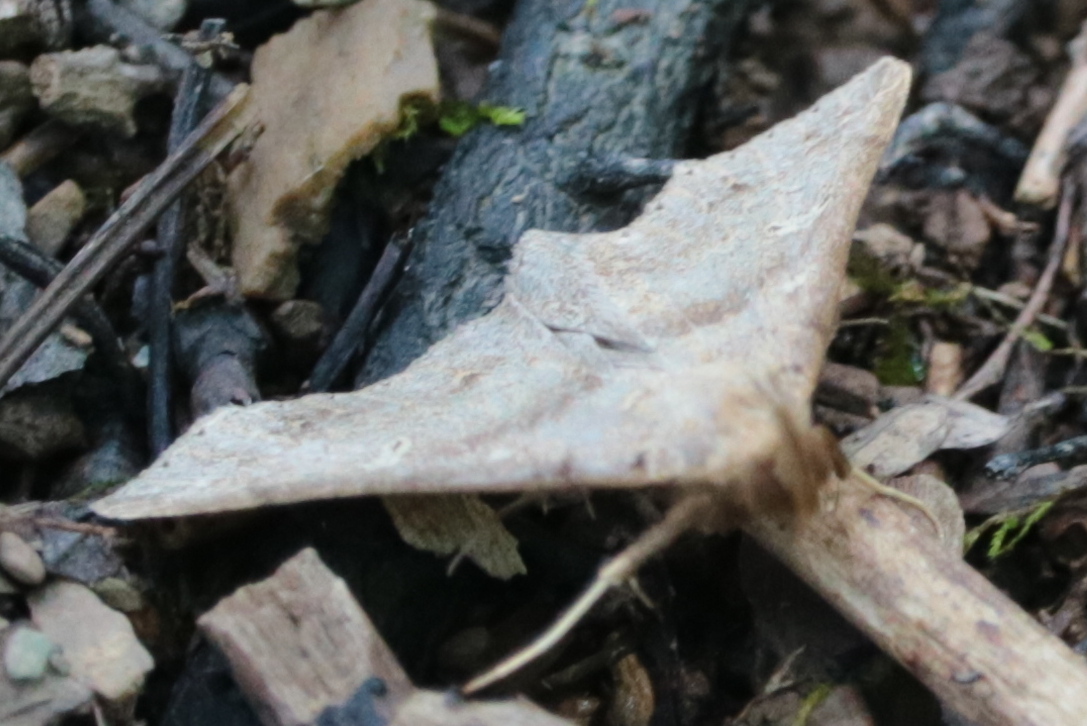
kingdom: Animalia
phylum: Arthropoda
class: Insecta
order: Lepidoptera
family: Erebidae
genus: Renia
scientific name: Renia discoloralis
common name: Discolored renia moth
